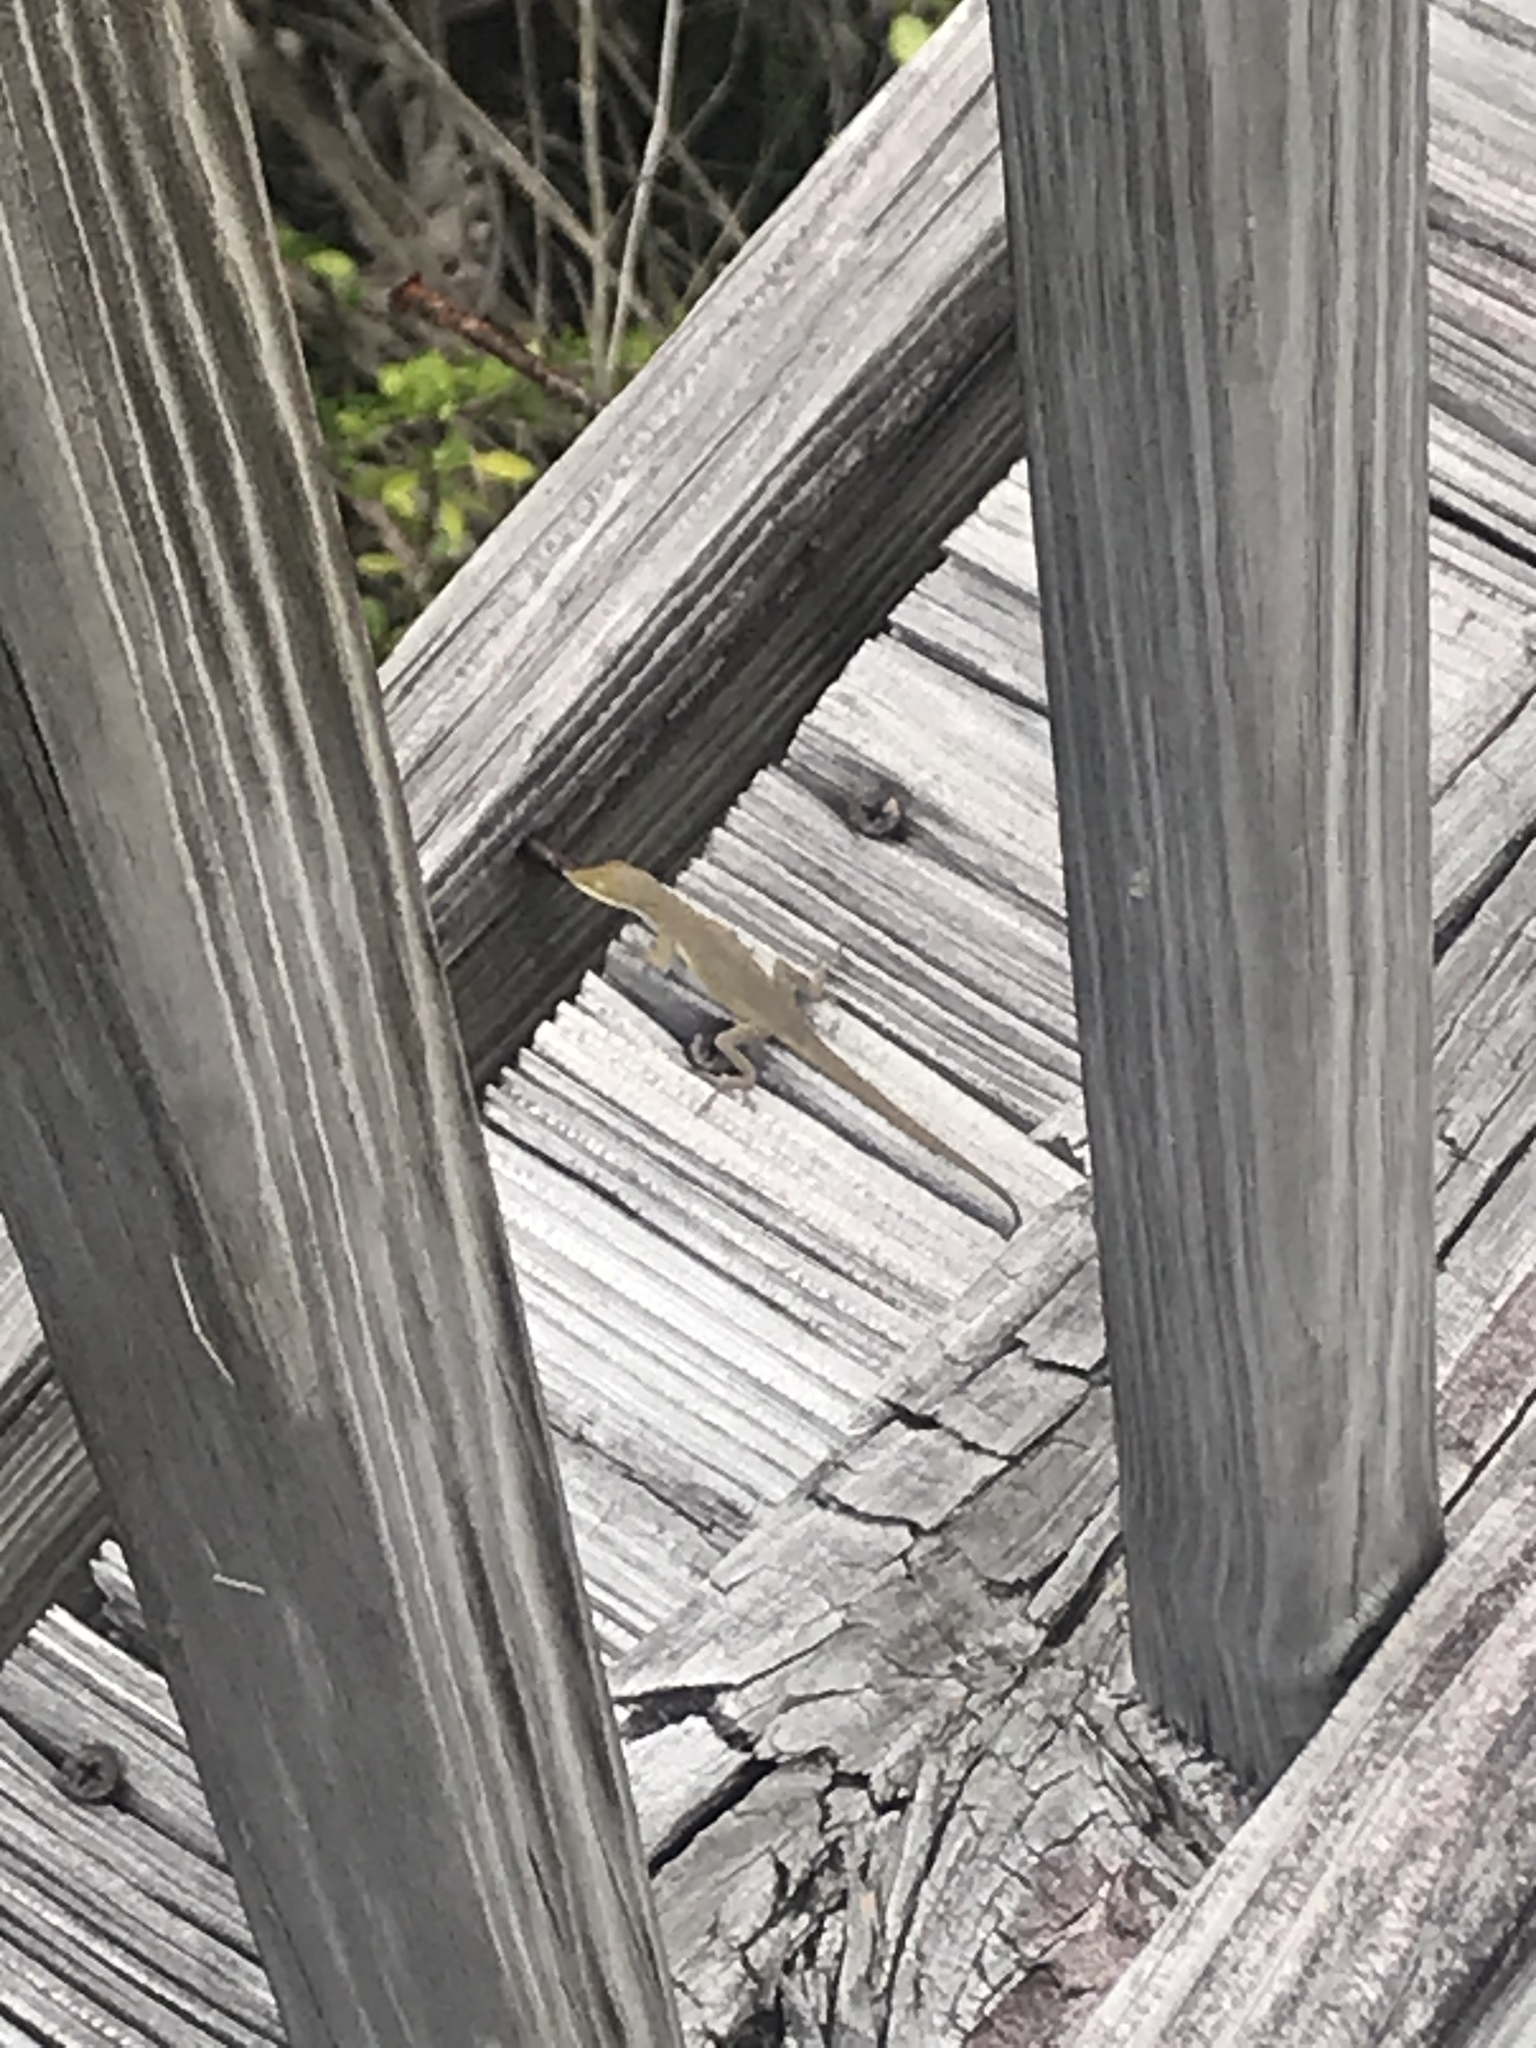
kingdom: Animalia
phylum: Chordata
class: Squamata
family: Dactyloidae
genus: Anolis
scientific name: Anolis carolinensis
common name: Green anole
